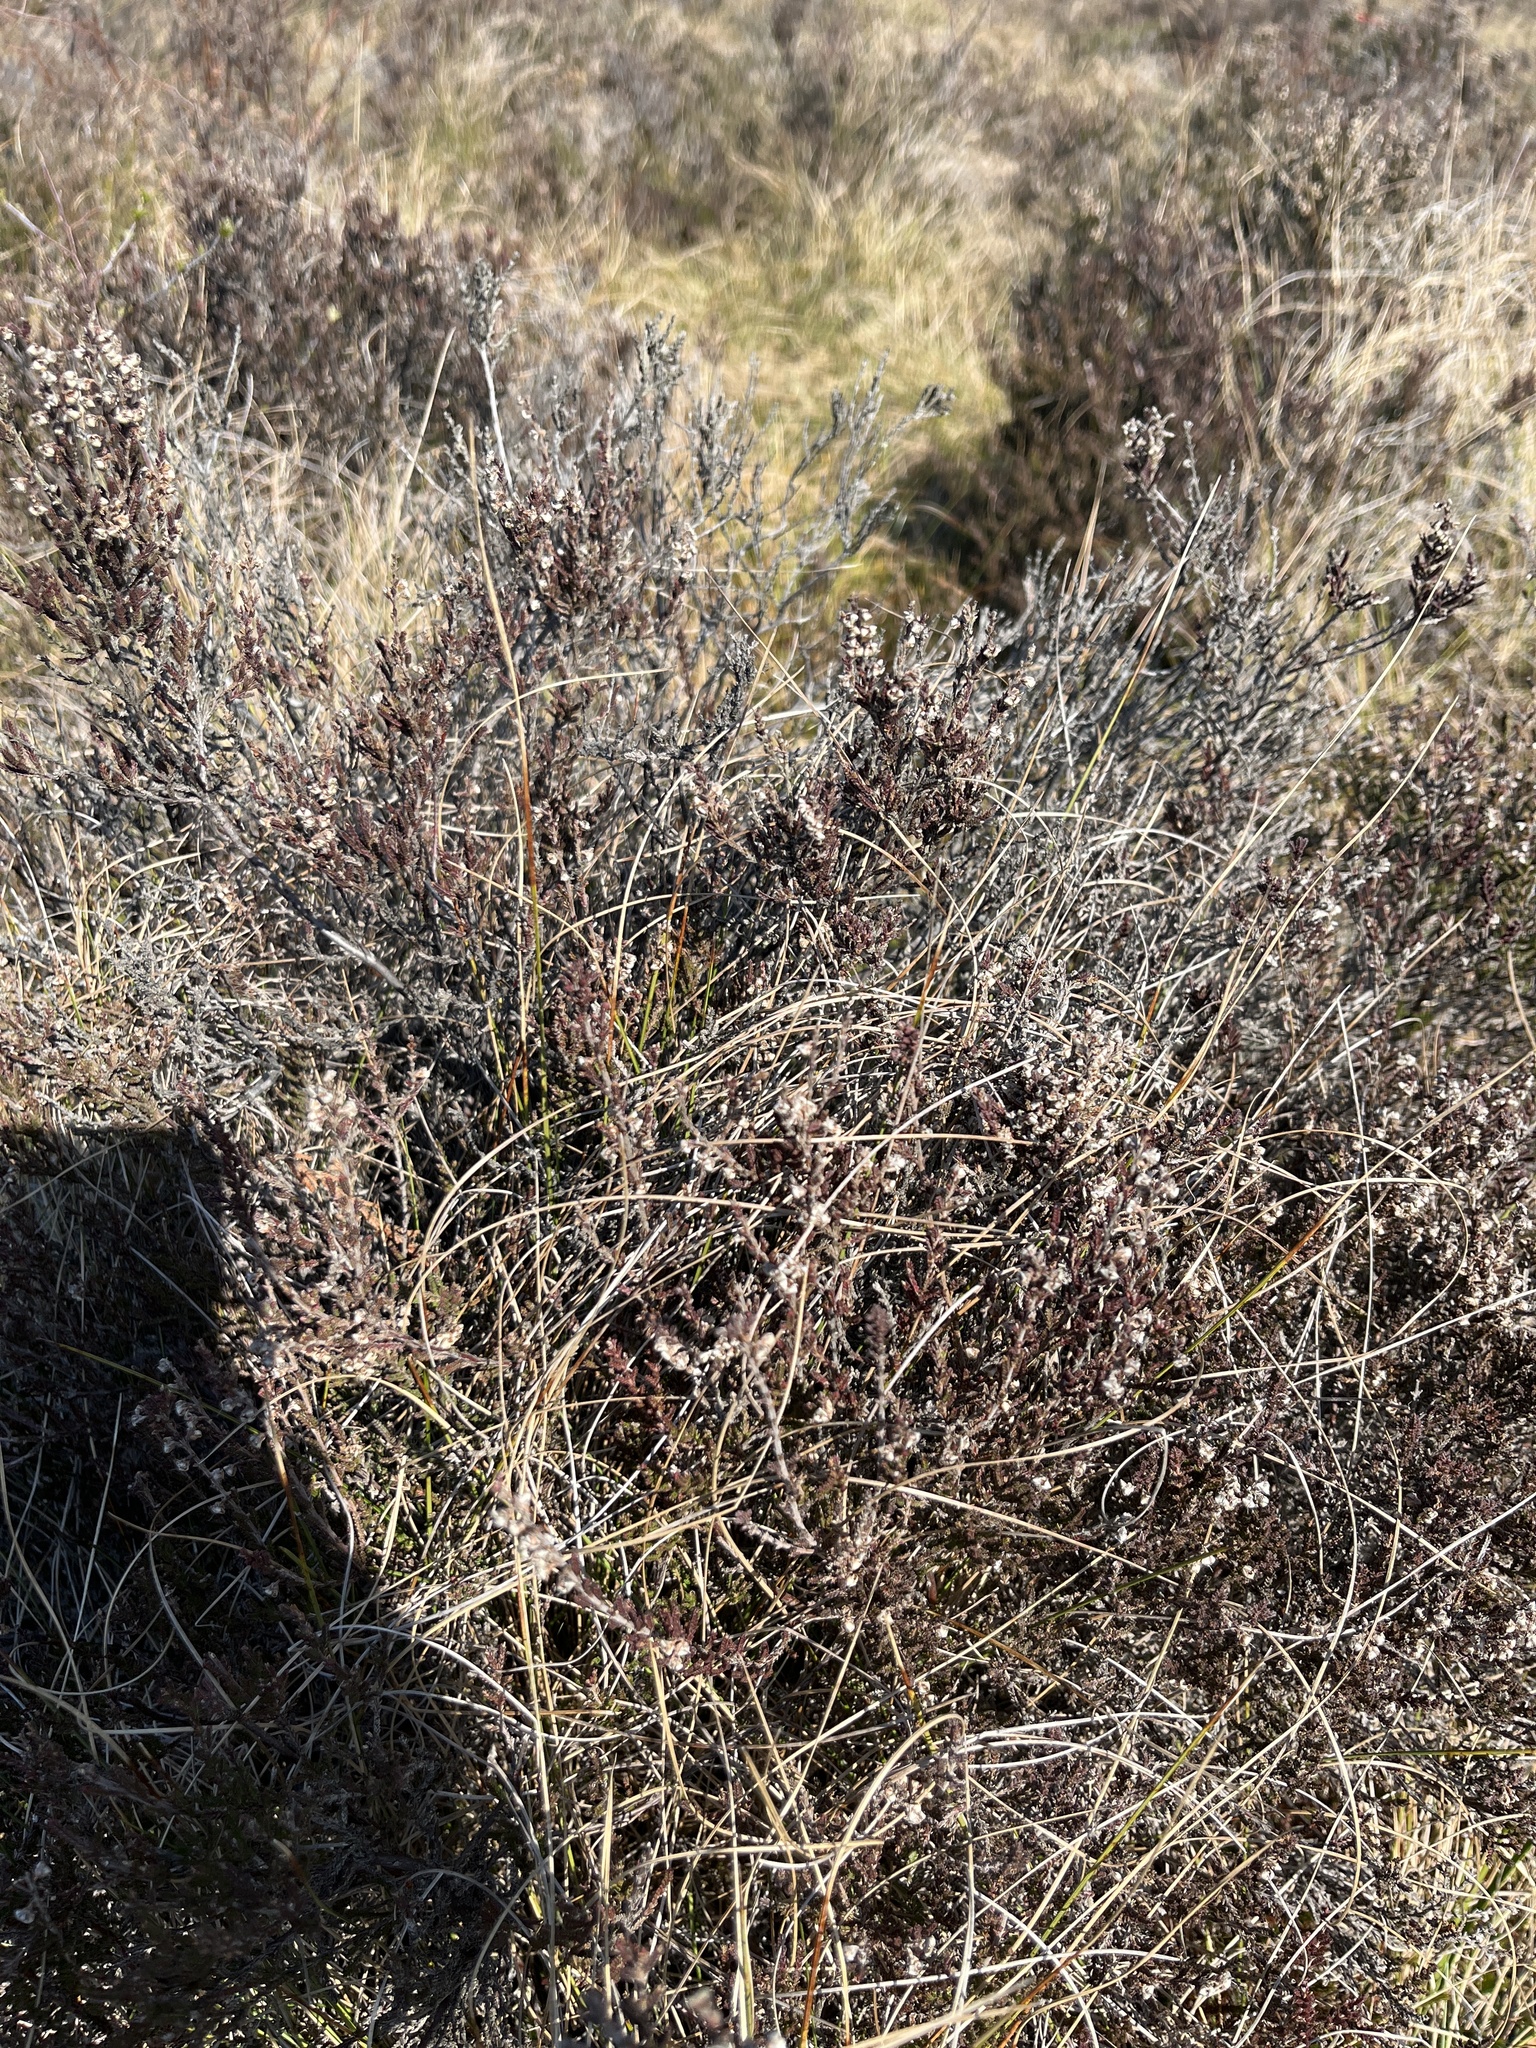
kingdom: Plantae
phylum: Tracheophyta
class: Magnoliopsida
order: Ericales
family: Ericaceae
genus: Calluna
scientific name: Calluna vulgaris
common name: Heather
